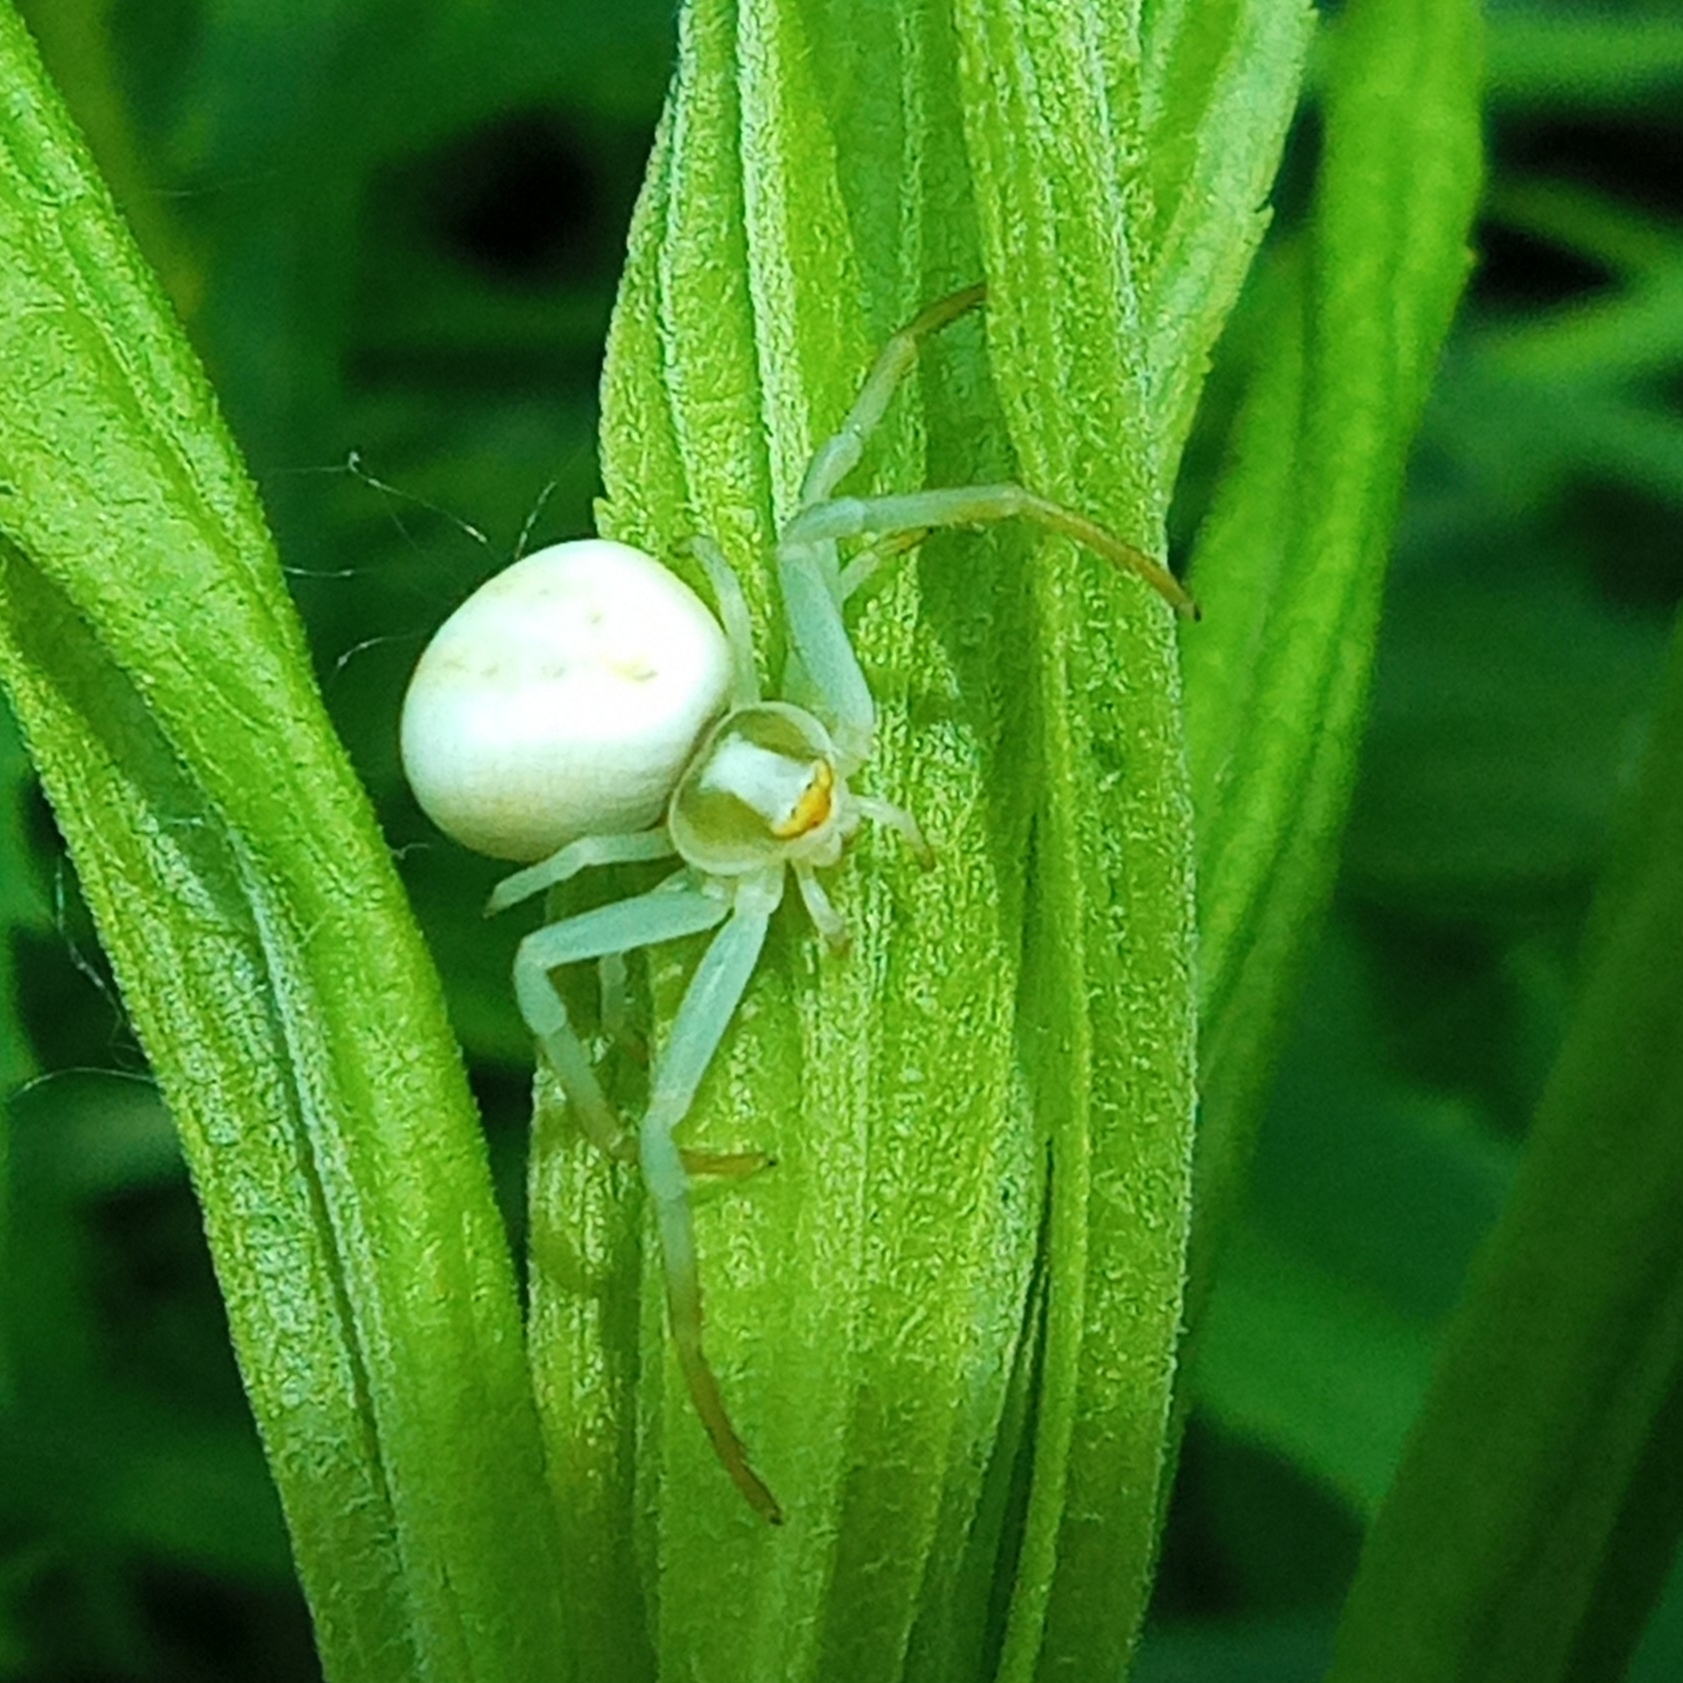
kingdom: Animalia
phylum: Arthropoda
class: Arachnida
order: Araneae
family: Thomisidae
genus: Misumena
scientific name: Misumena vatia
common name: Goldenrod crab spider
